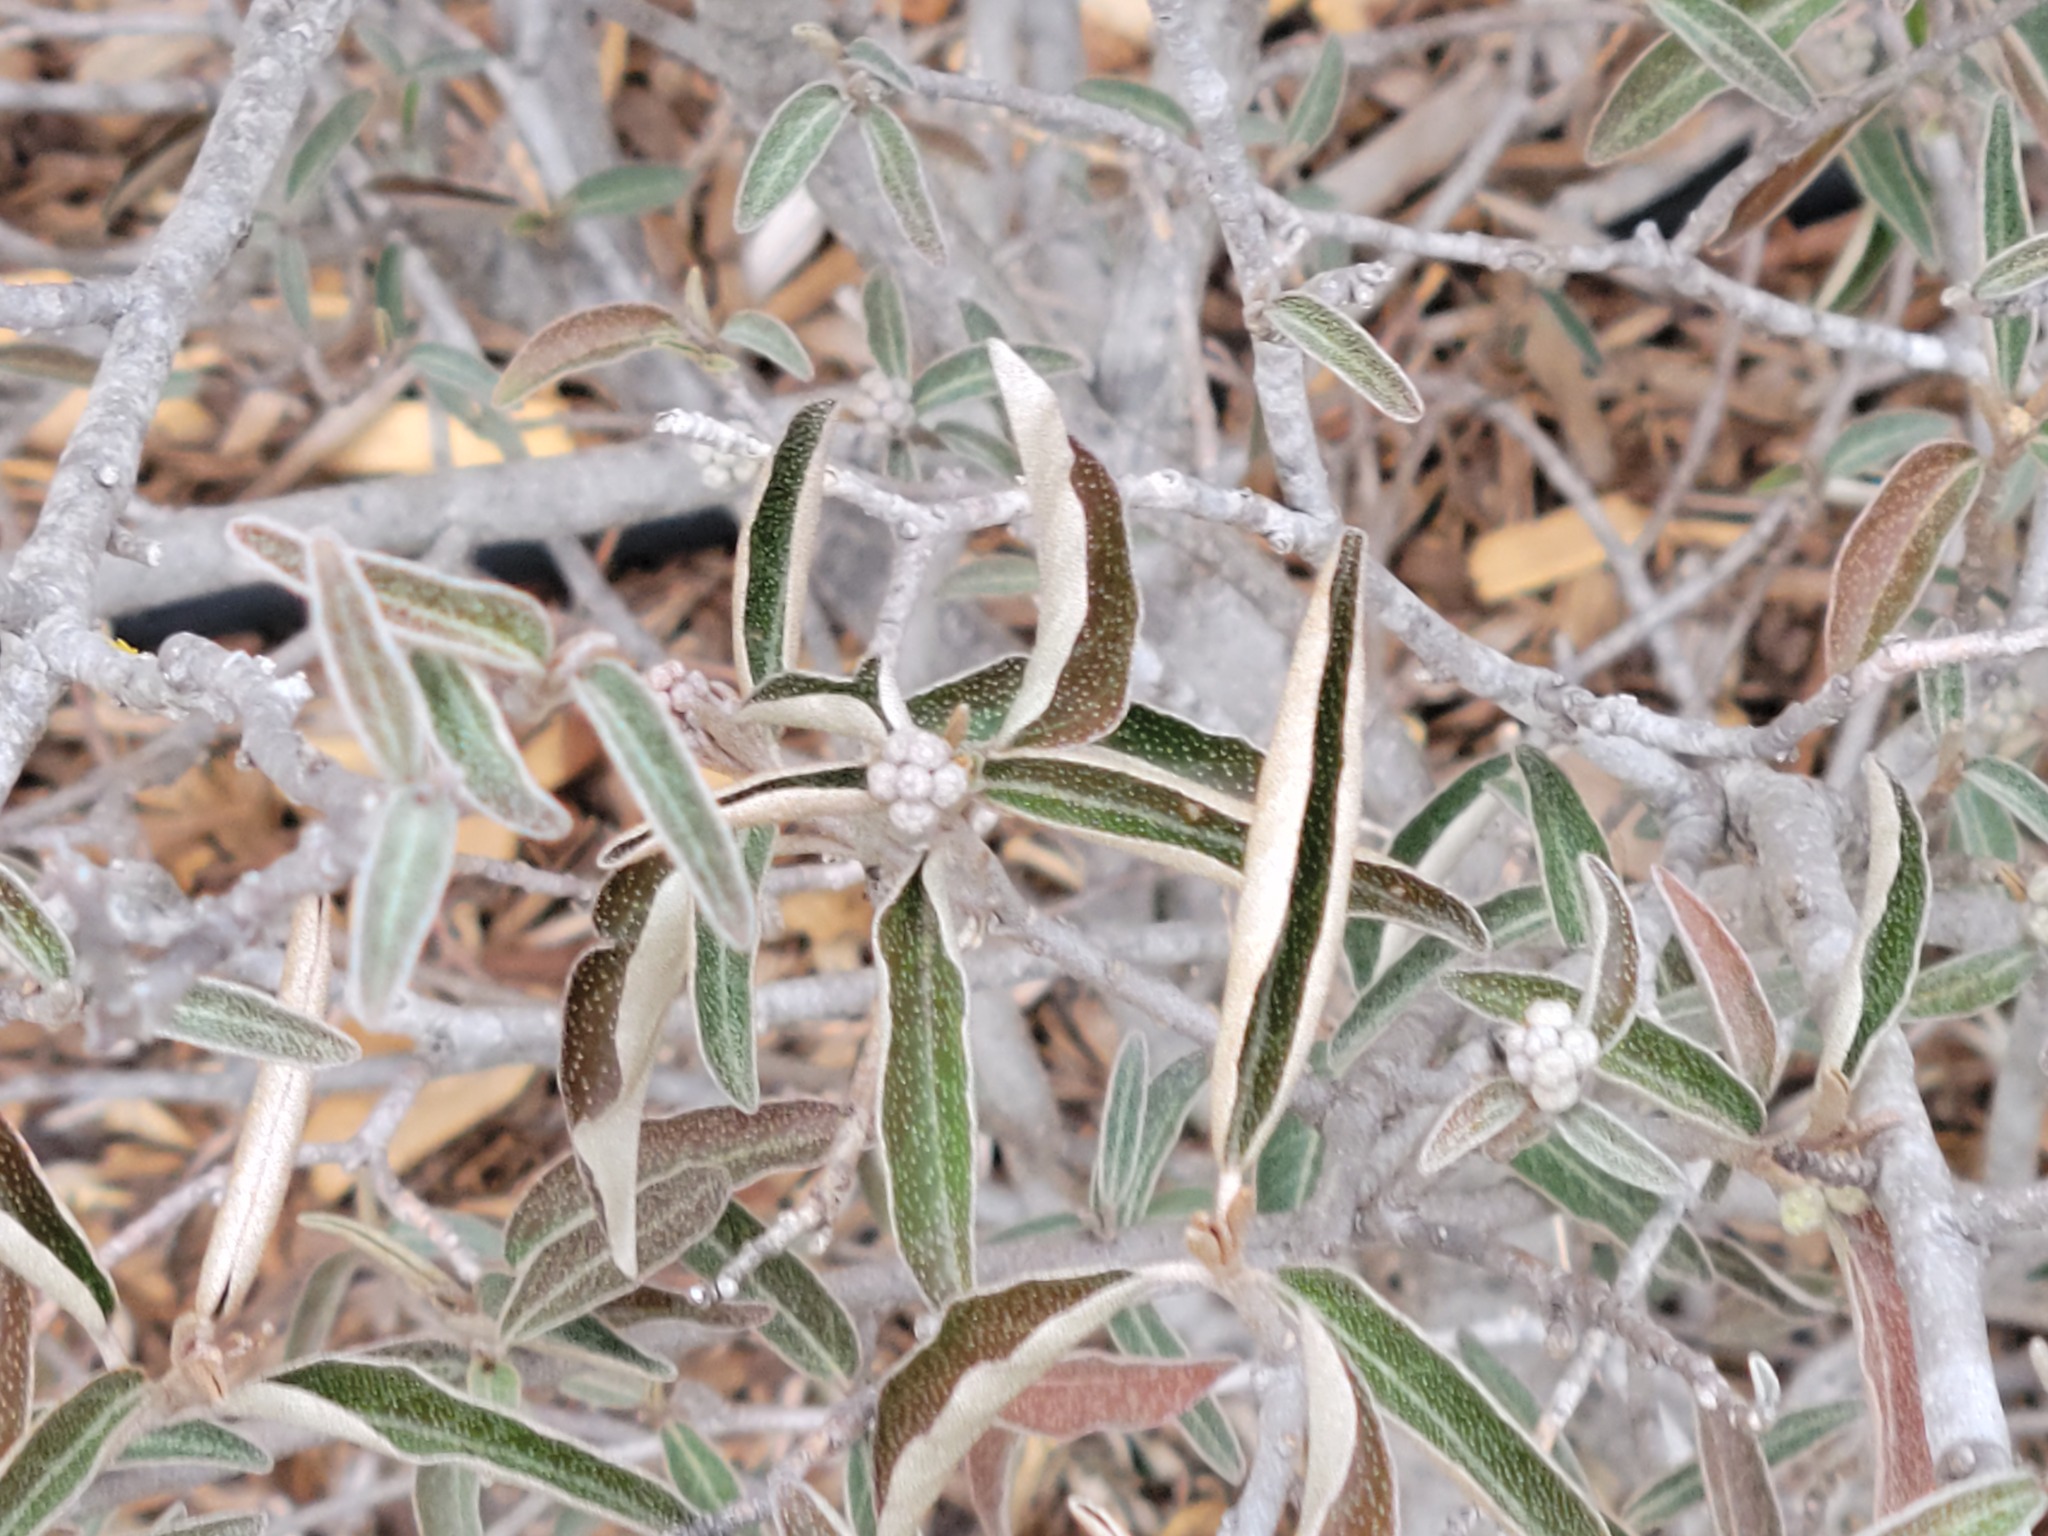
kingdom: Plantae
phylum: Tracheophyta
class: Magnoliopsida
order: Malpighiales
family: Euphorbiaceae
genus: Croton
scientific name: Croton alabamensis
